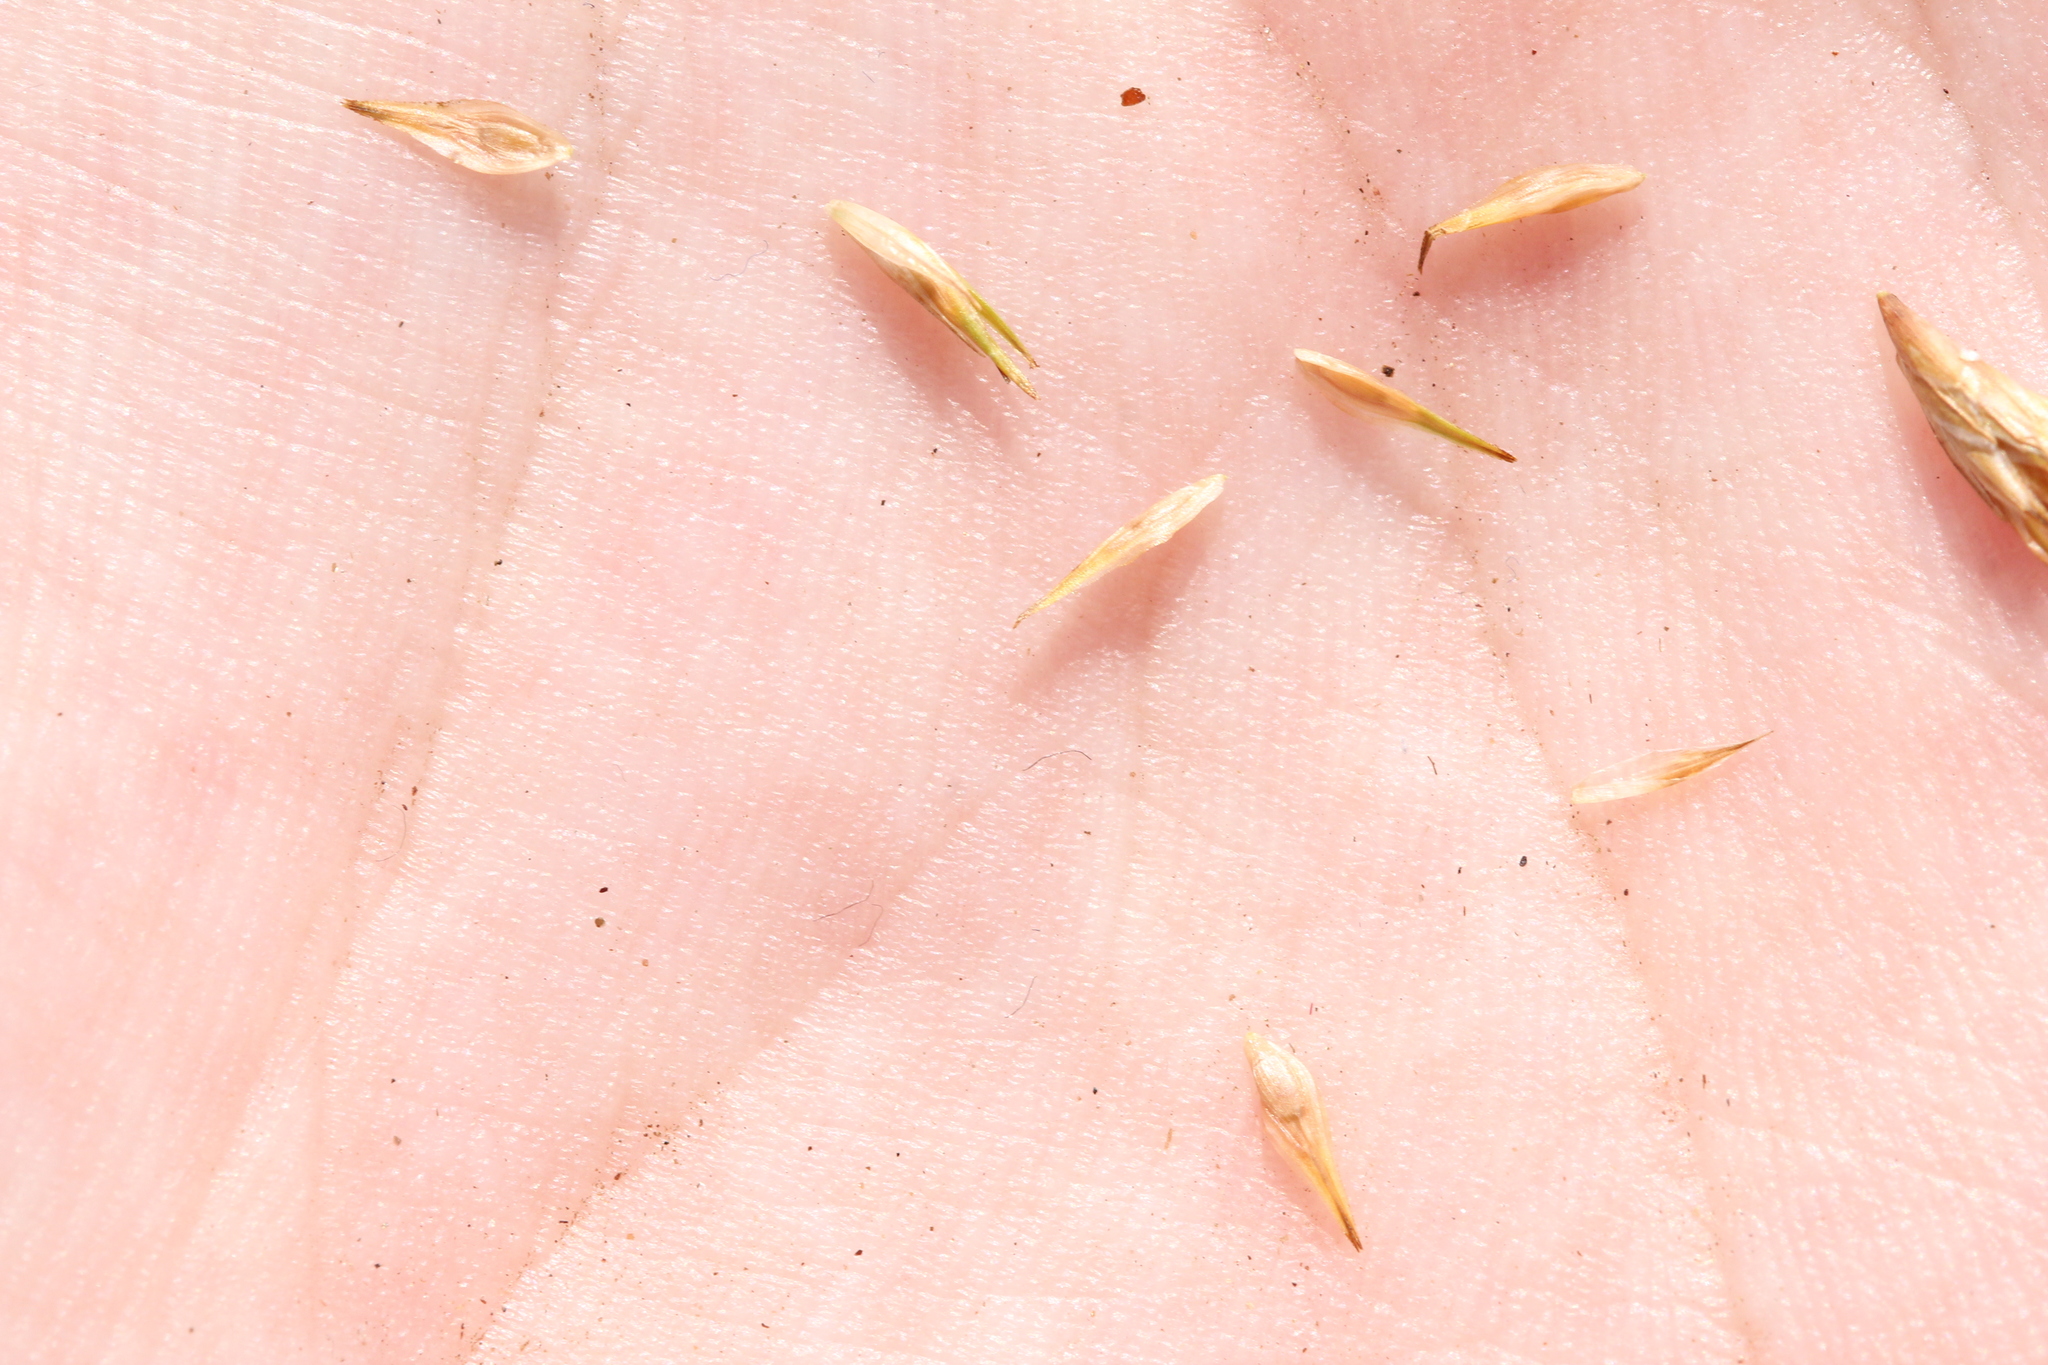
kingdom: Plantae
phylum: Tracheophyta
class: Liliopsida
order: Poales
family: Cyperaceae
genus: Carex
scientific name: Carex crawfordii
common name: Crawford's sedge
